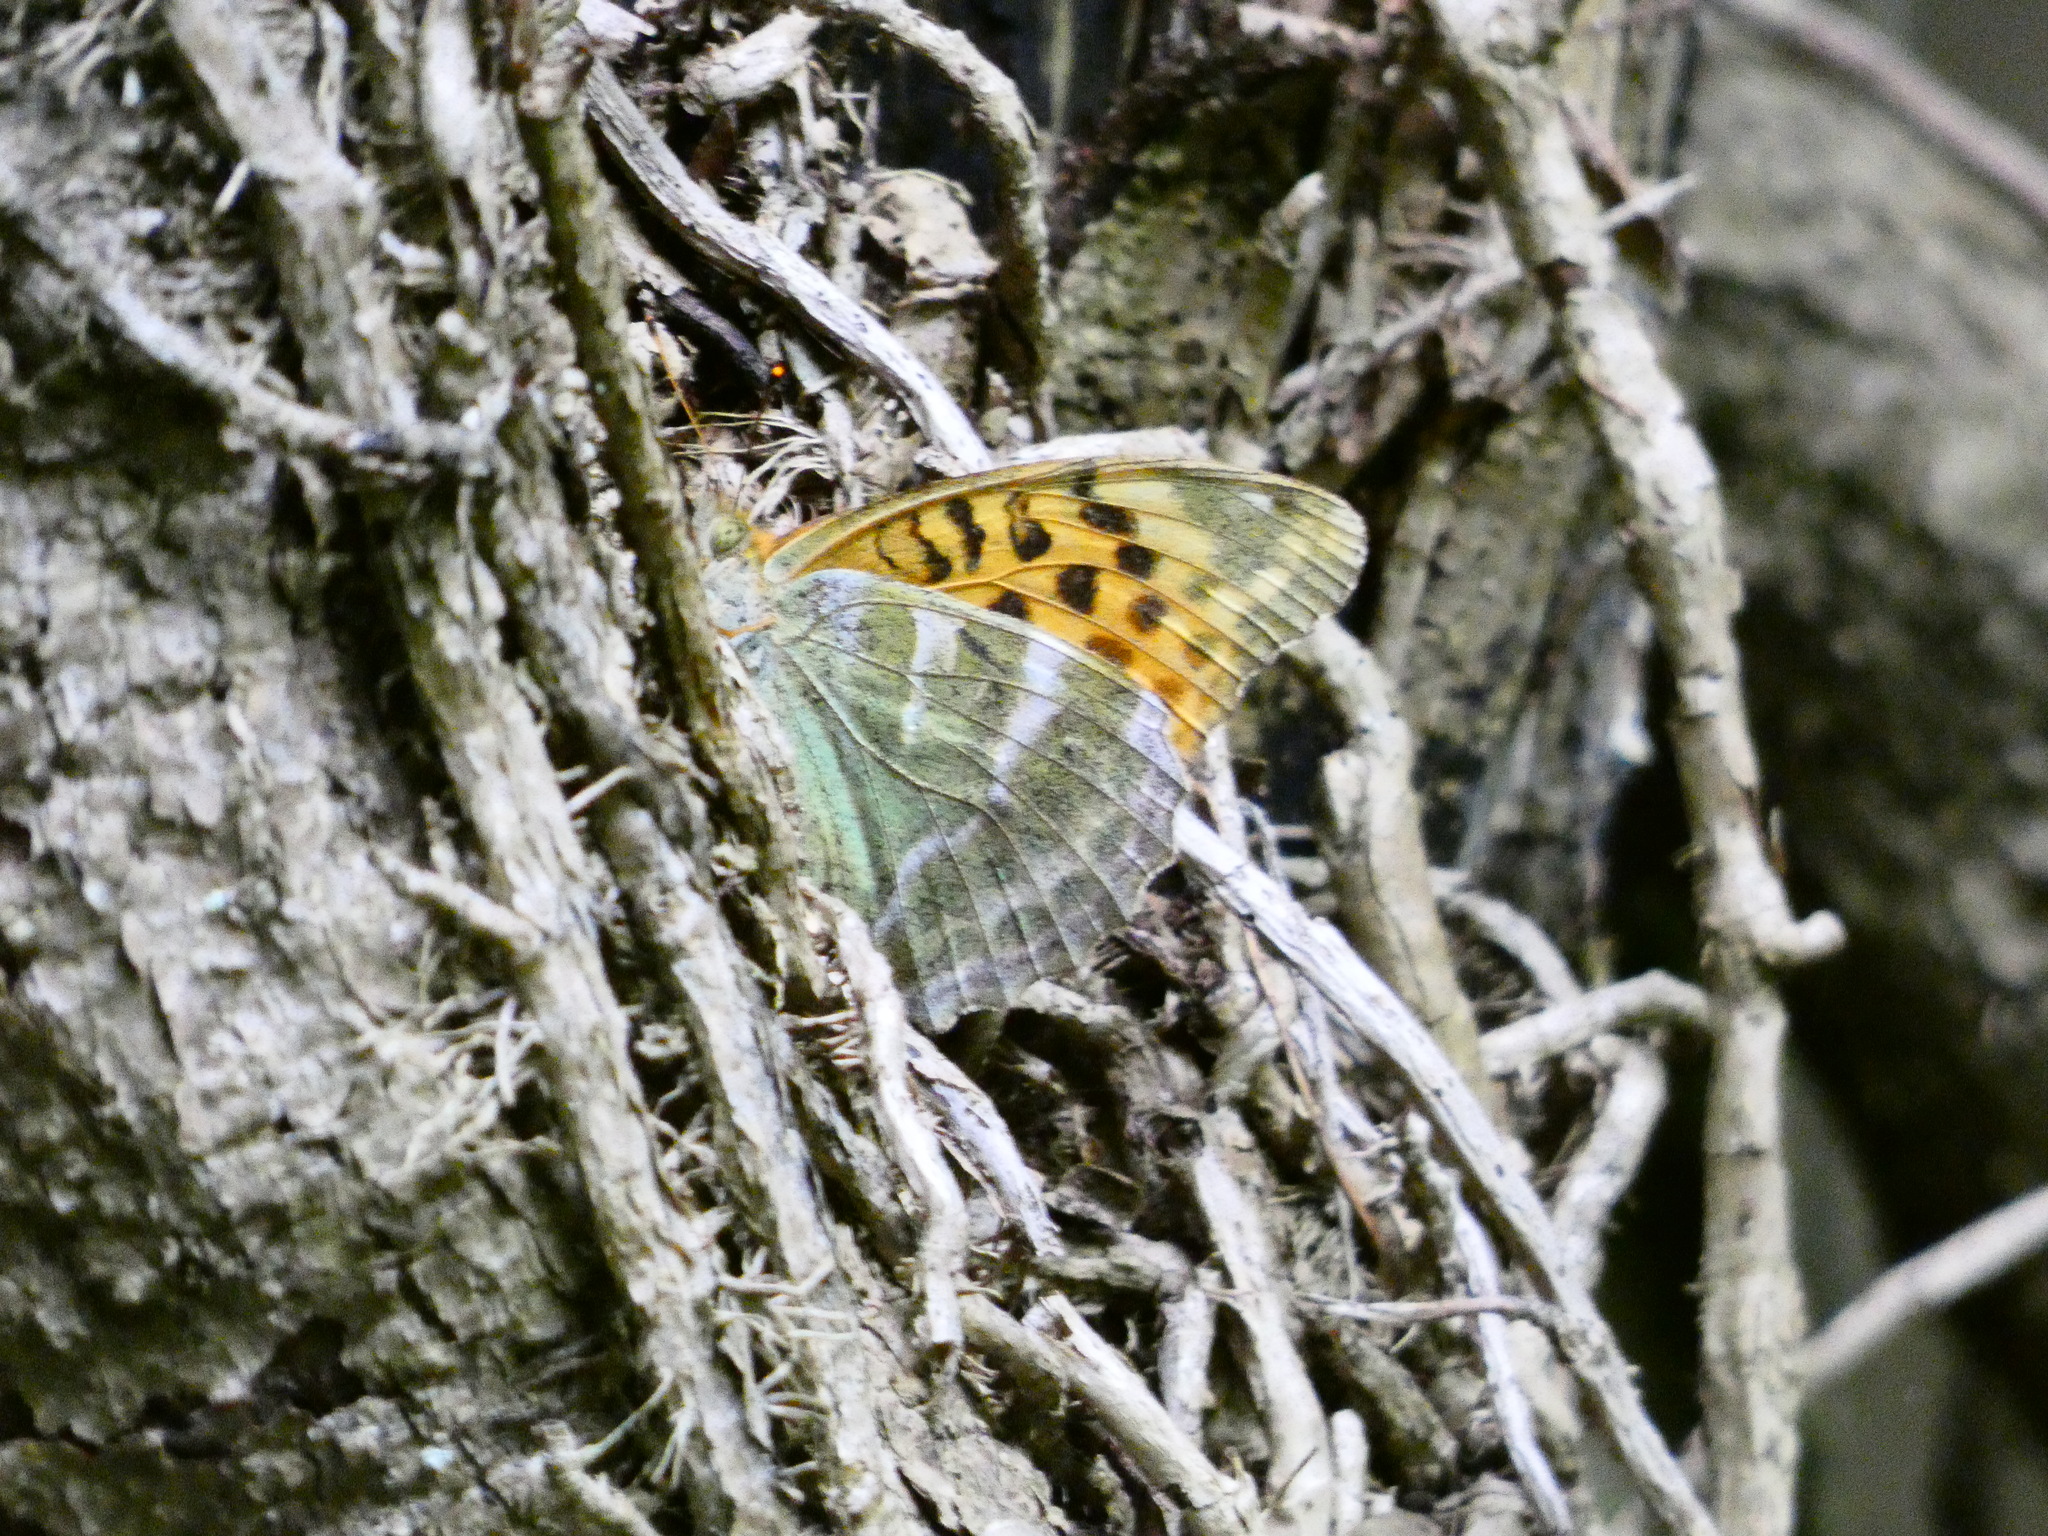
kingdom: Animalia
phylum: Arthropoda
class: Insecta
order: Lepidoptera
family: Nymphalidae
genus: Argynnis
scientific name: Argynnis paphia
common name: Silver-washed fritillary
